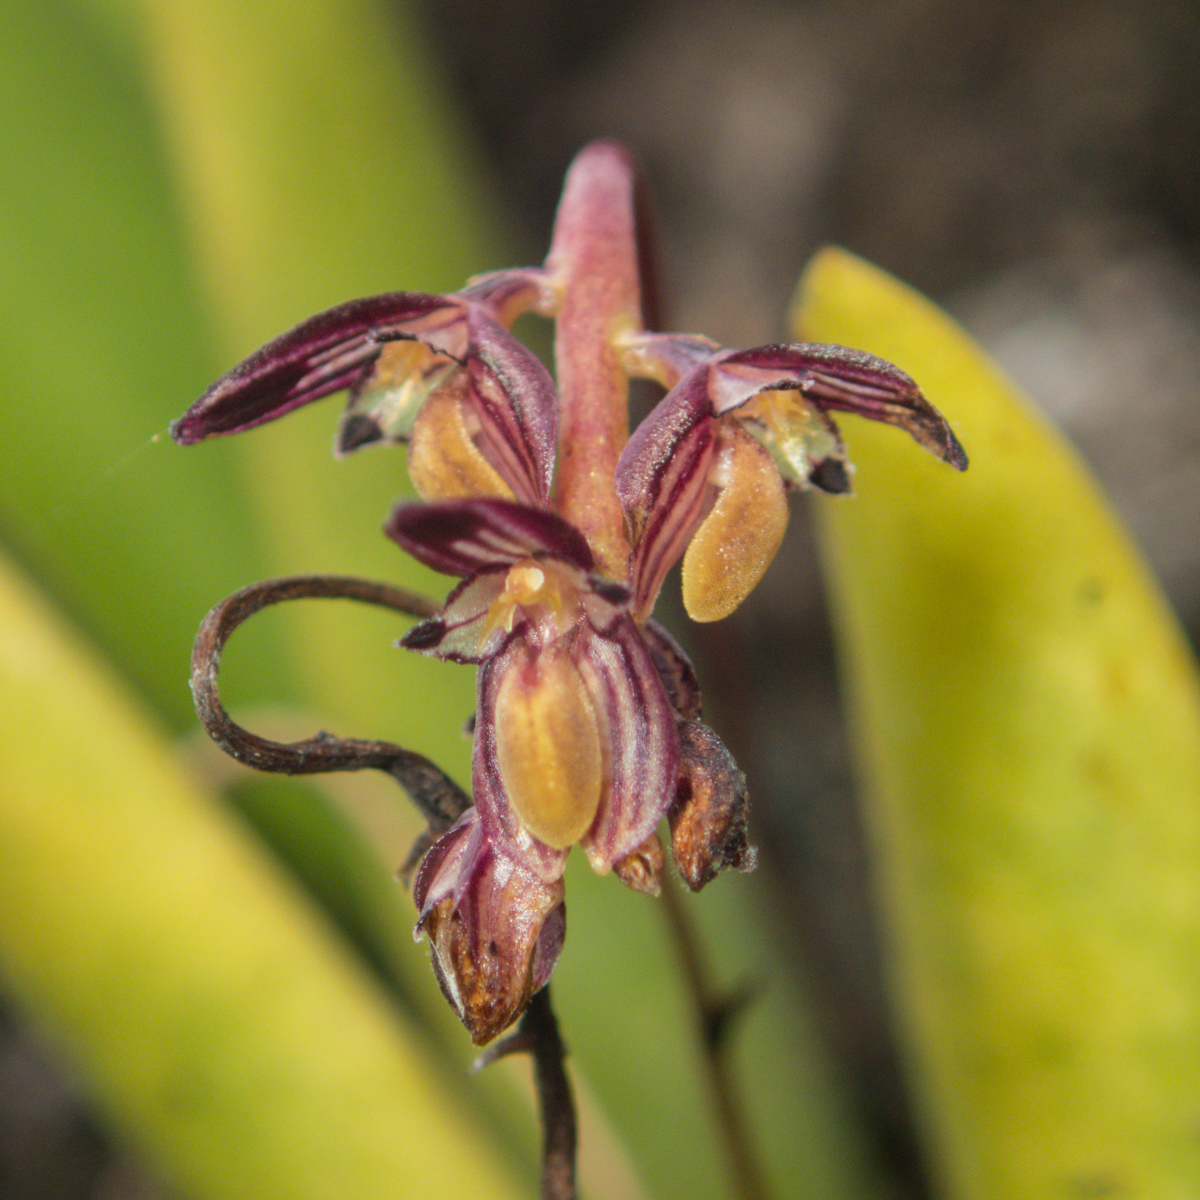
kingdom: Plantae
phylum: Tracheophyta
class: Liliopsida
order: Asparagales
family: Orchidaceae
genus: Bulbophyllum
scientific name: Bulbophyllum alcicorne
